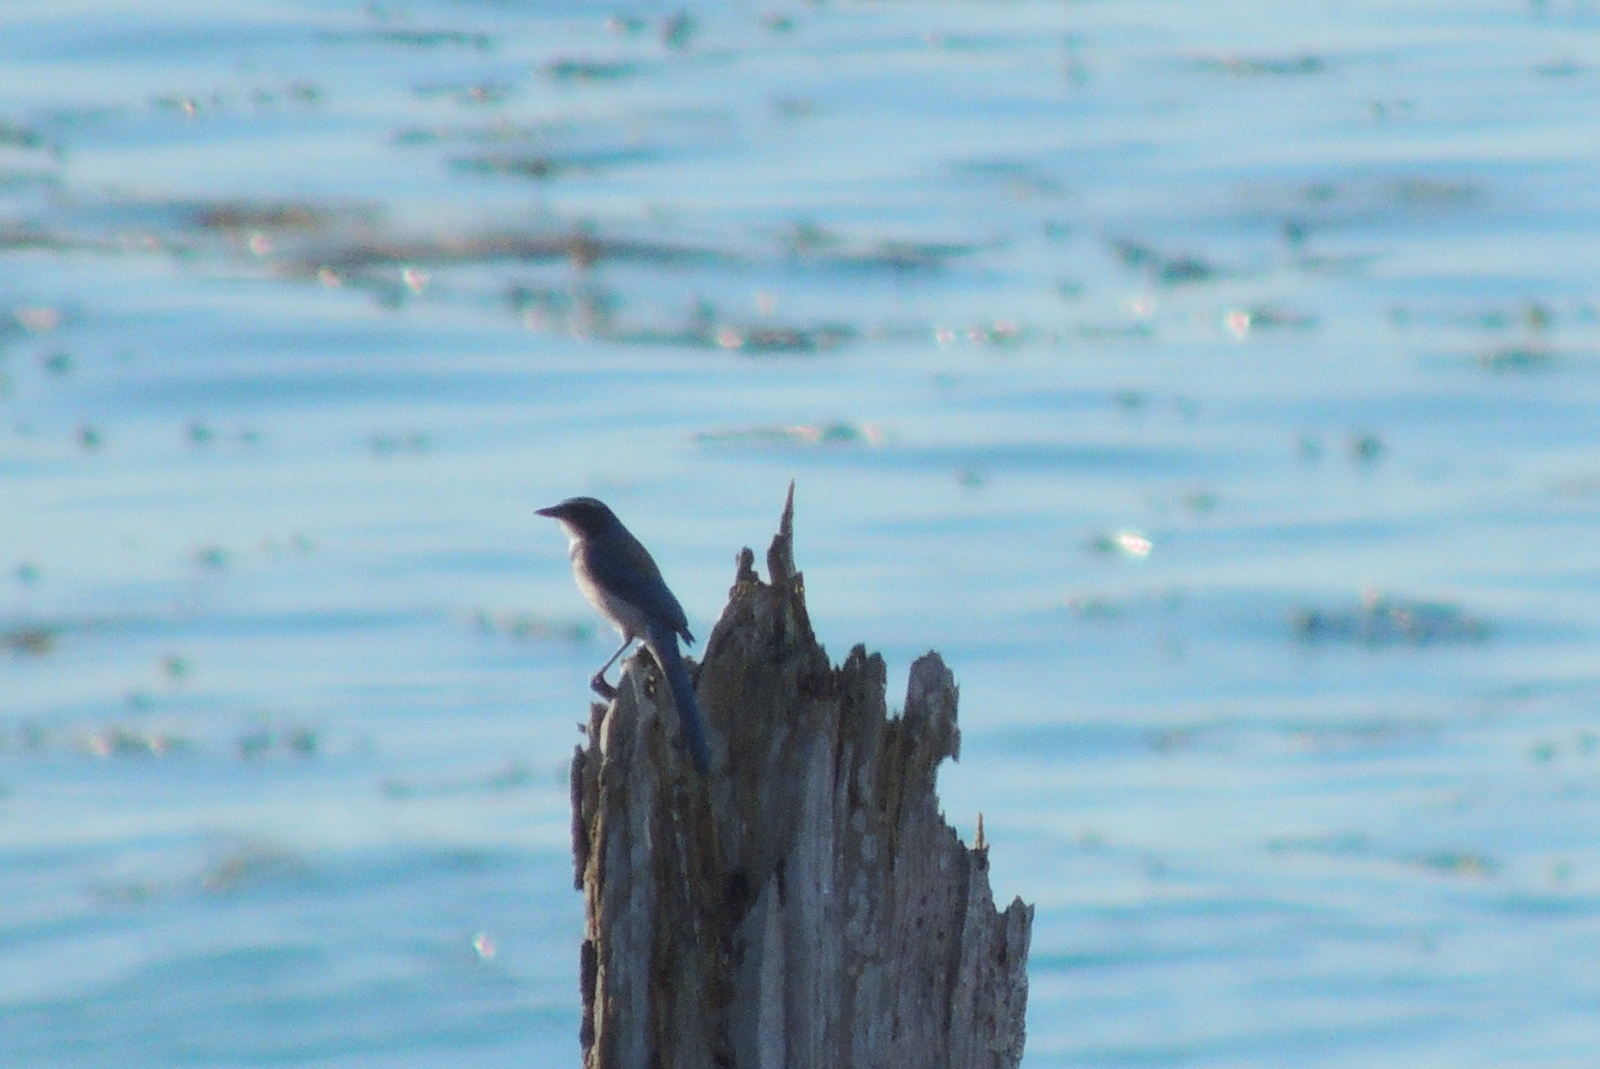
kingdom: Animalia
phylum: Chordata
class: Aves
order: Passeriformes
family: Corvidae
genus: Aphelocoma
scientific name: Aphelocoma californica
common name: California scrub-jay
